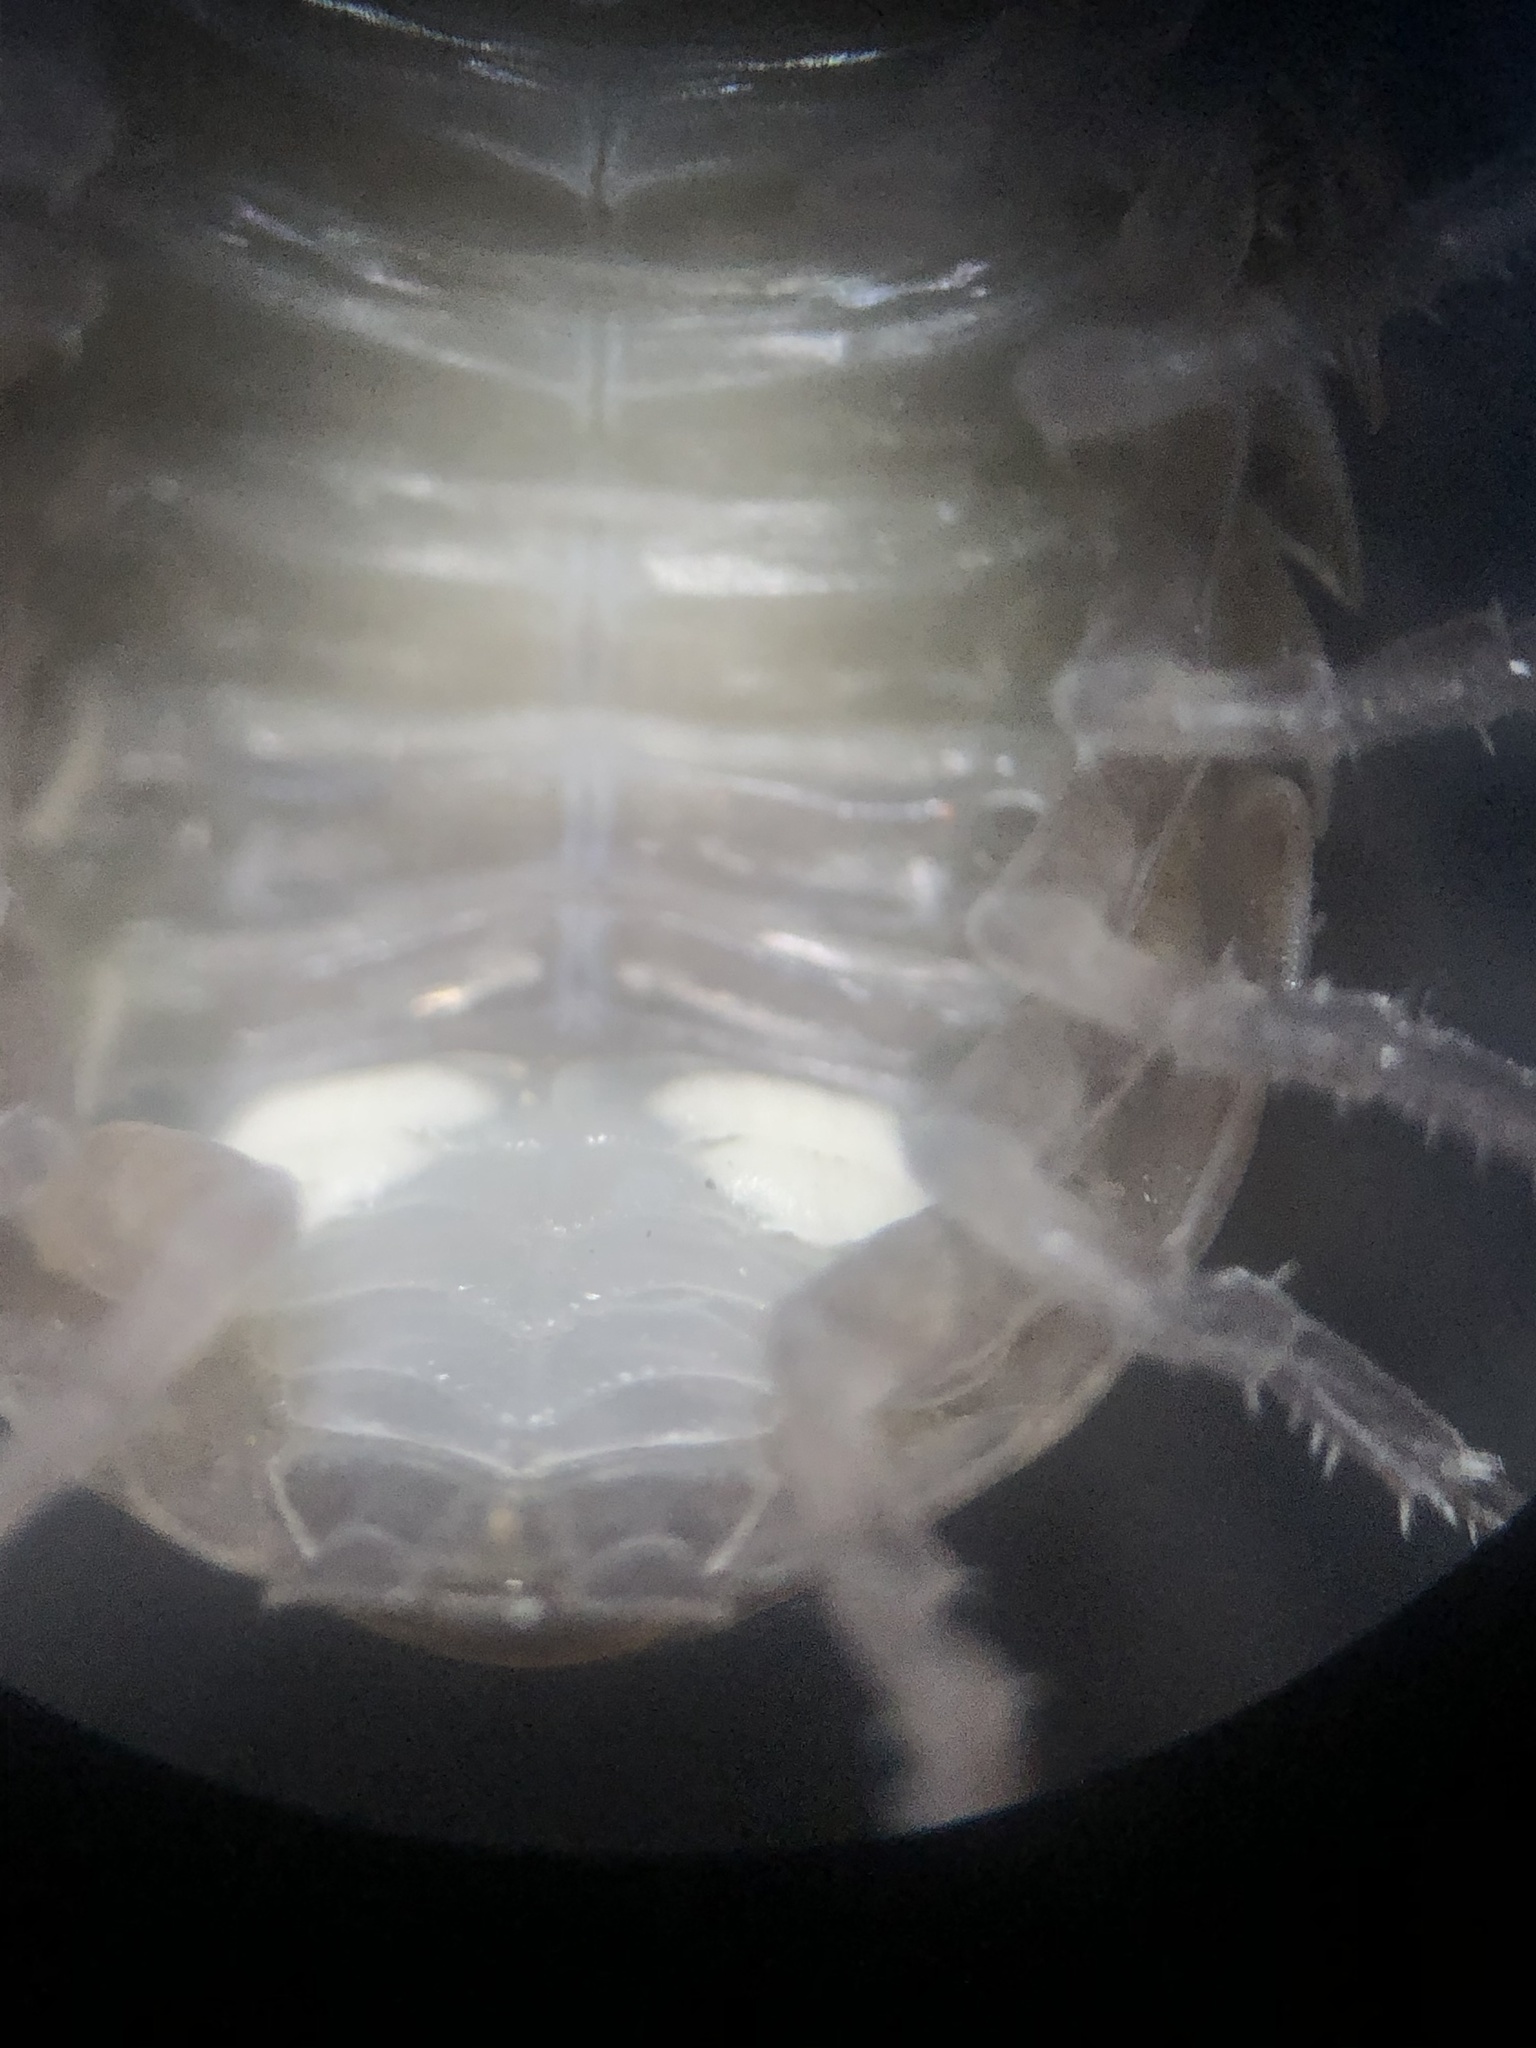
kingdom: Animalia
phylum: Arthropoda
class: Malacostraca
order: Isopoda
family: Armadillidiidae
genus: Armadillidium
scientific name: Armadillidium vulgare
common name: Common pill woodlouse
